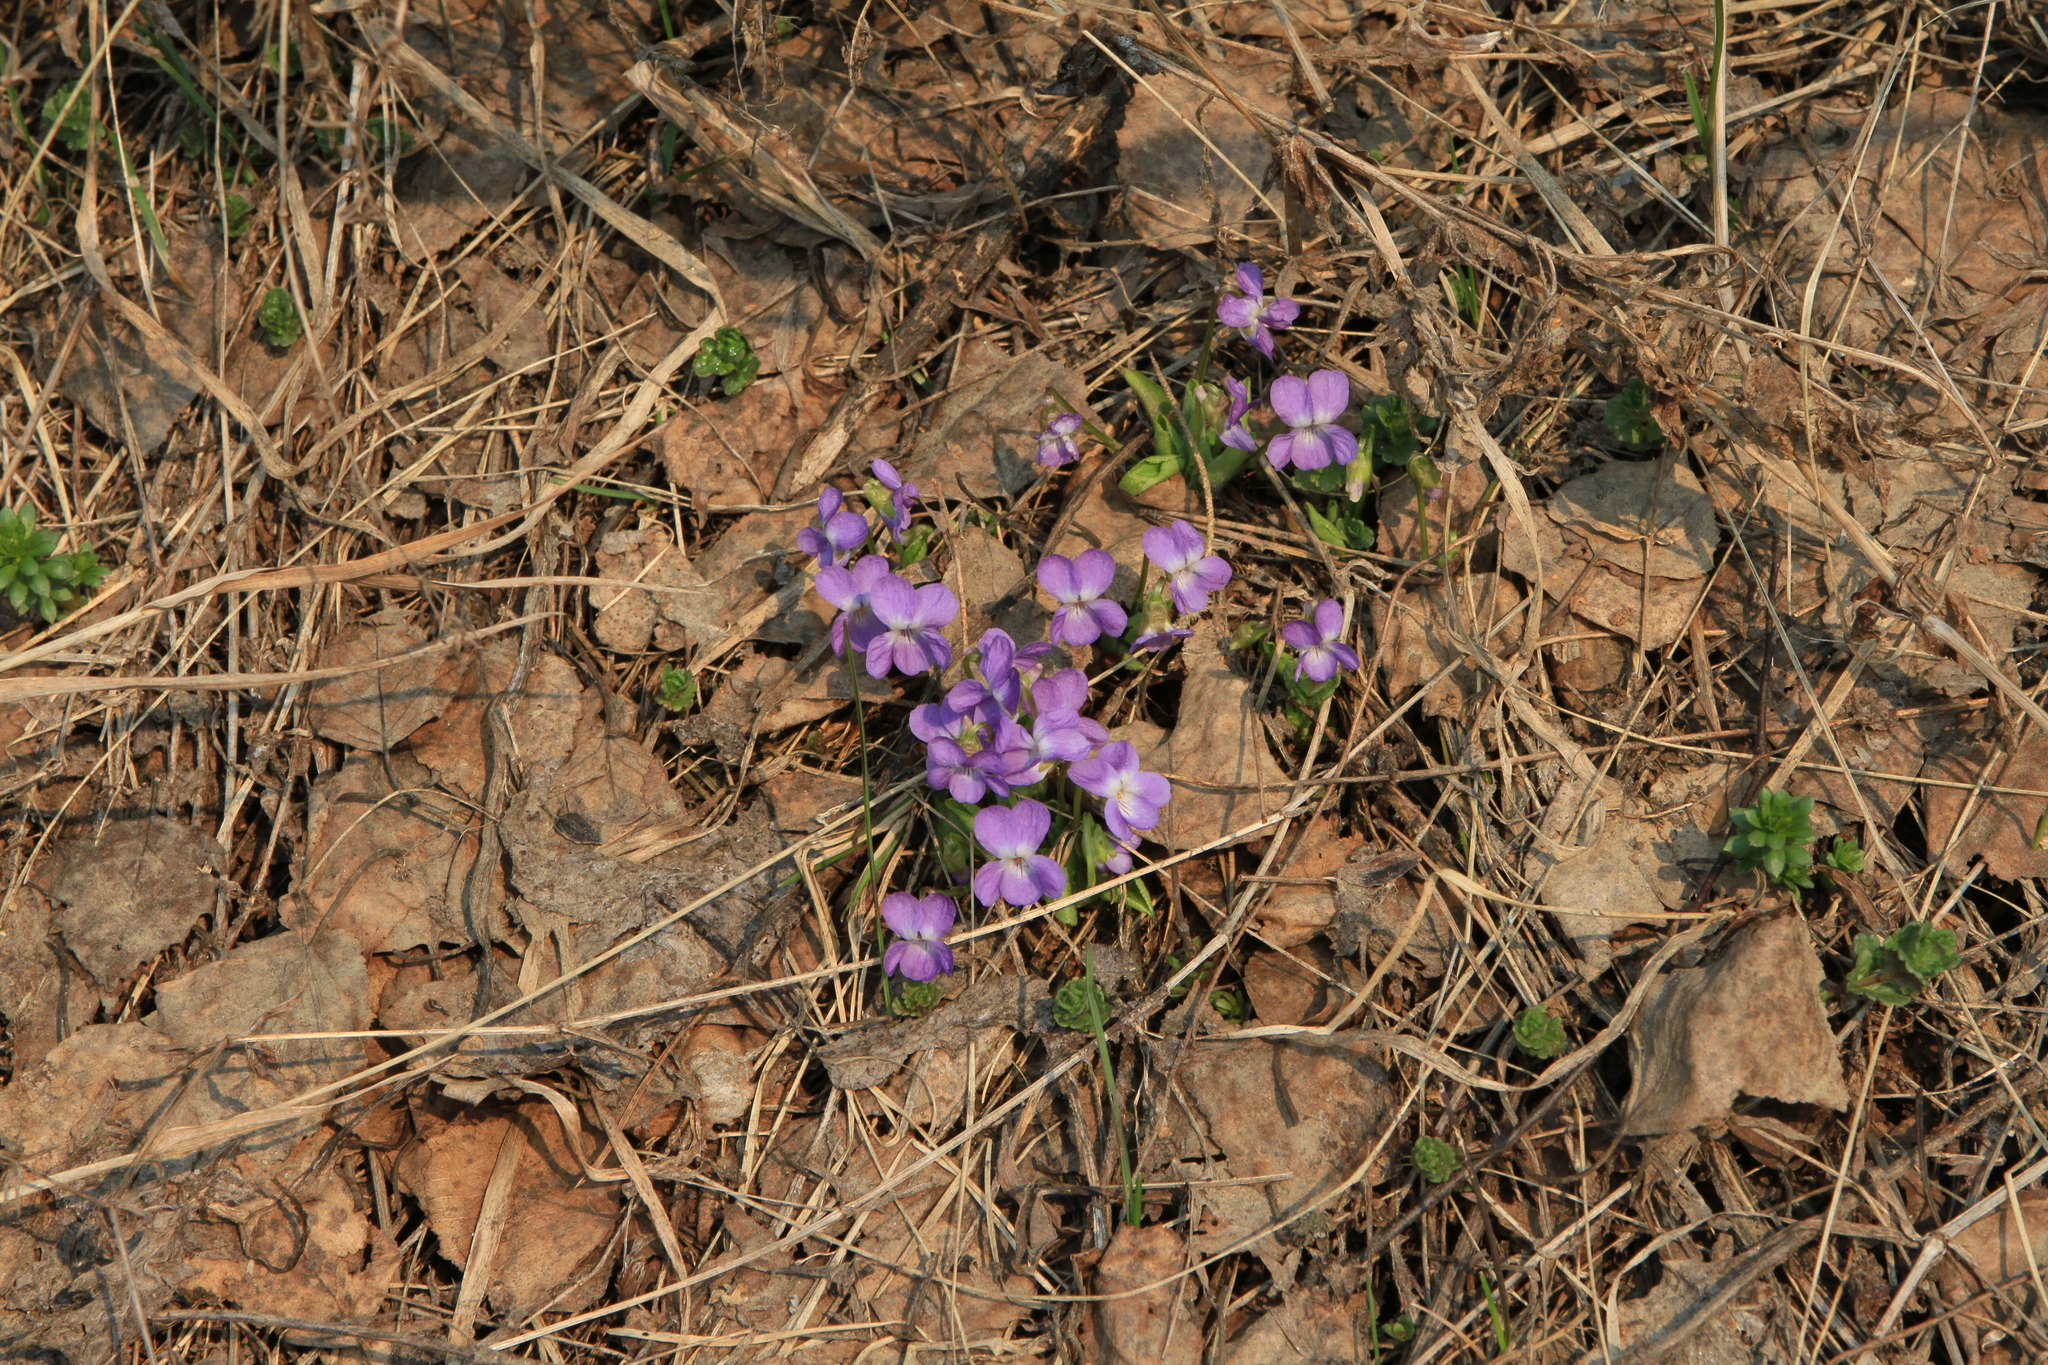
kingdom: Plantae
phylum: Tracheophyta
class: Magnoliopsida
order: Malpighiales
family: Violaceae
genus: Viola
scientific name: Viola hirta
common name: Hairy violet
